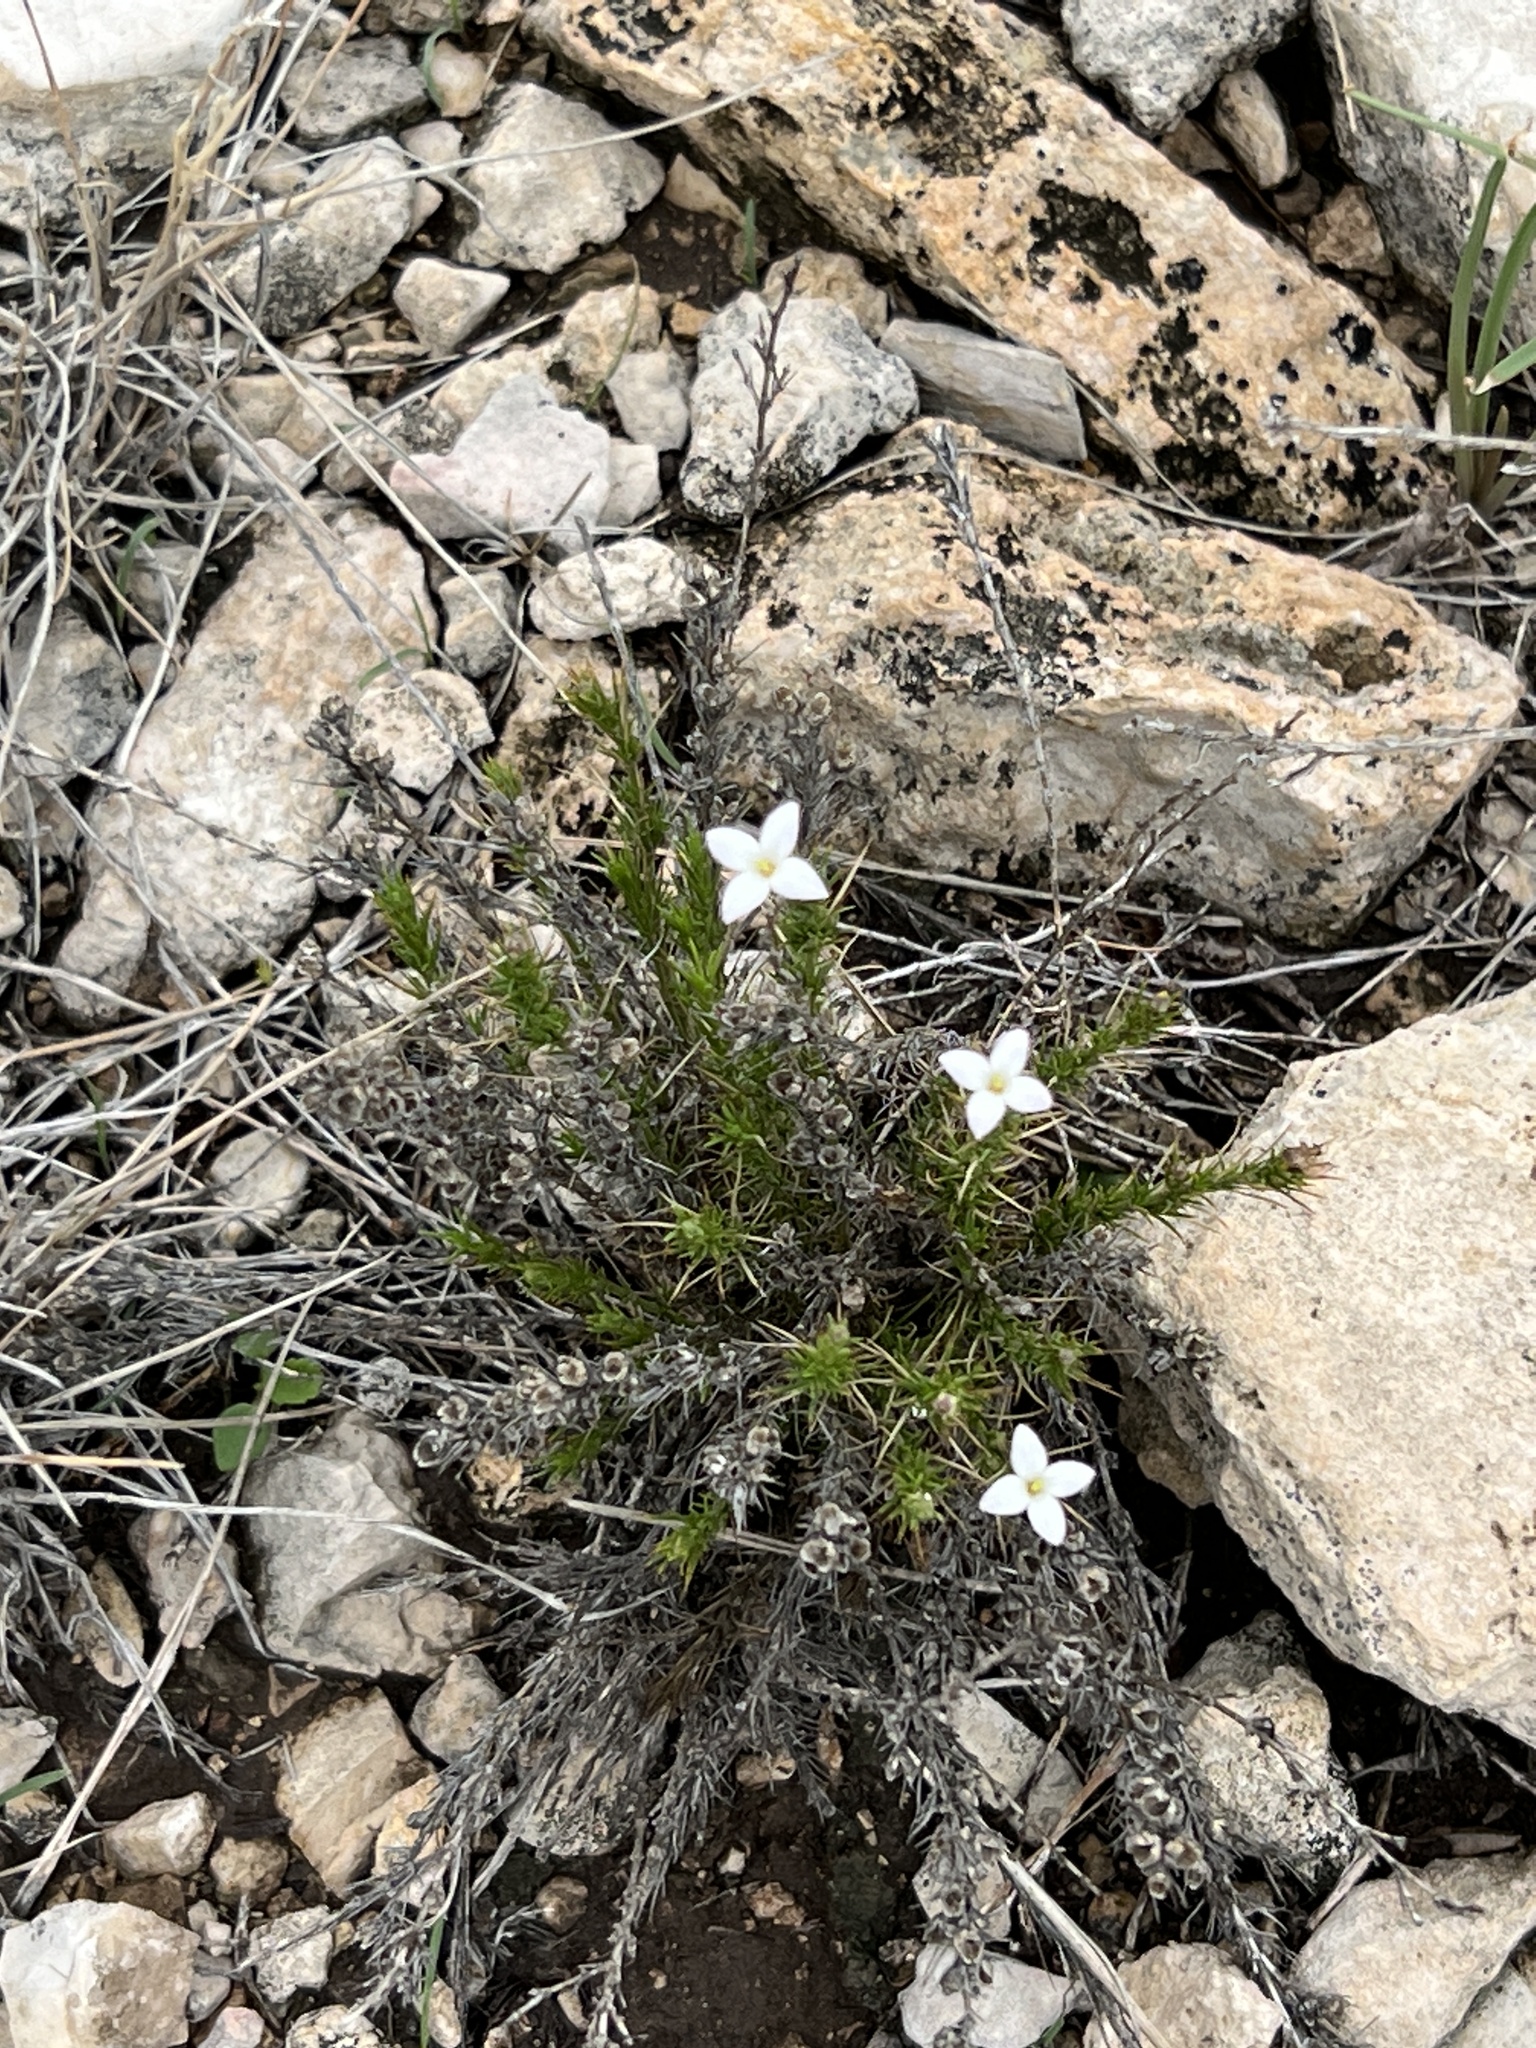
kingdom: Plantae
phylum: Tracheophyta
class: Magnoliopsida
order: Gentianales
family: Rubiaceae
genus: Houstonia
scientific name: Houstonia acerosa
